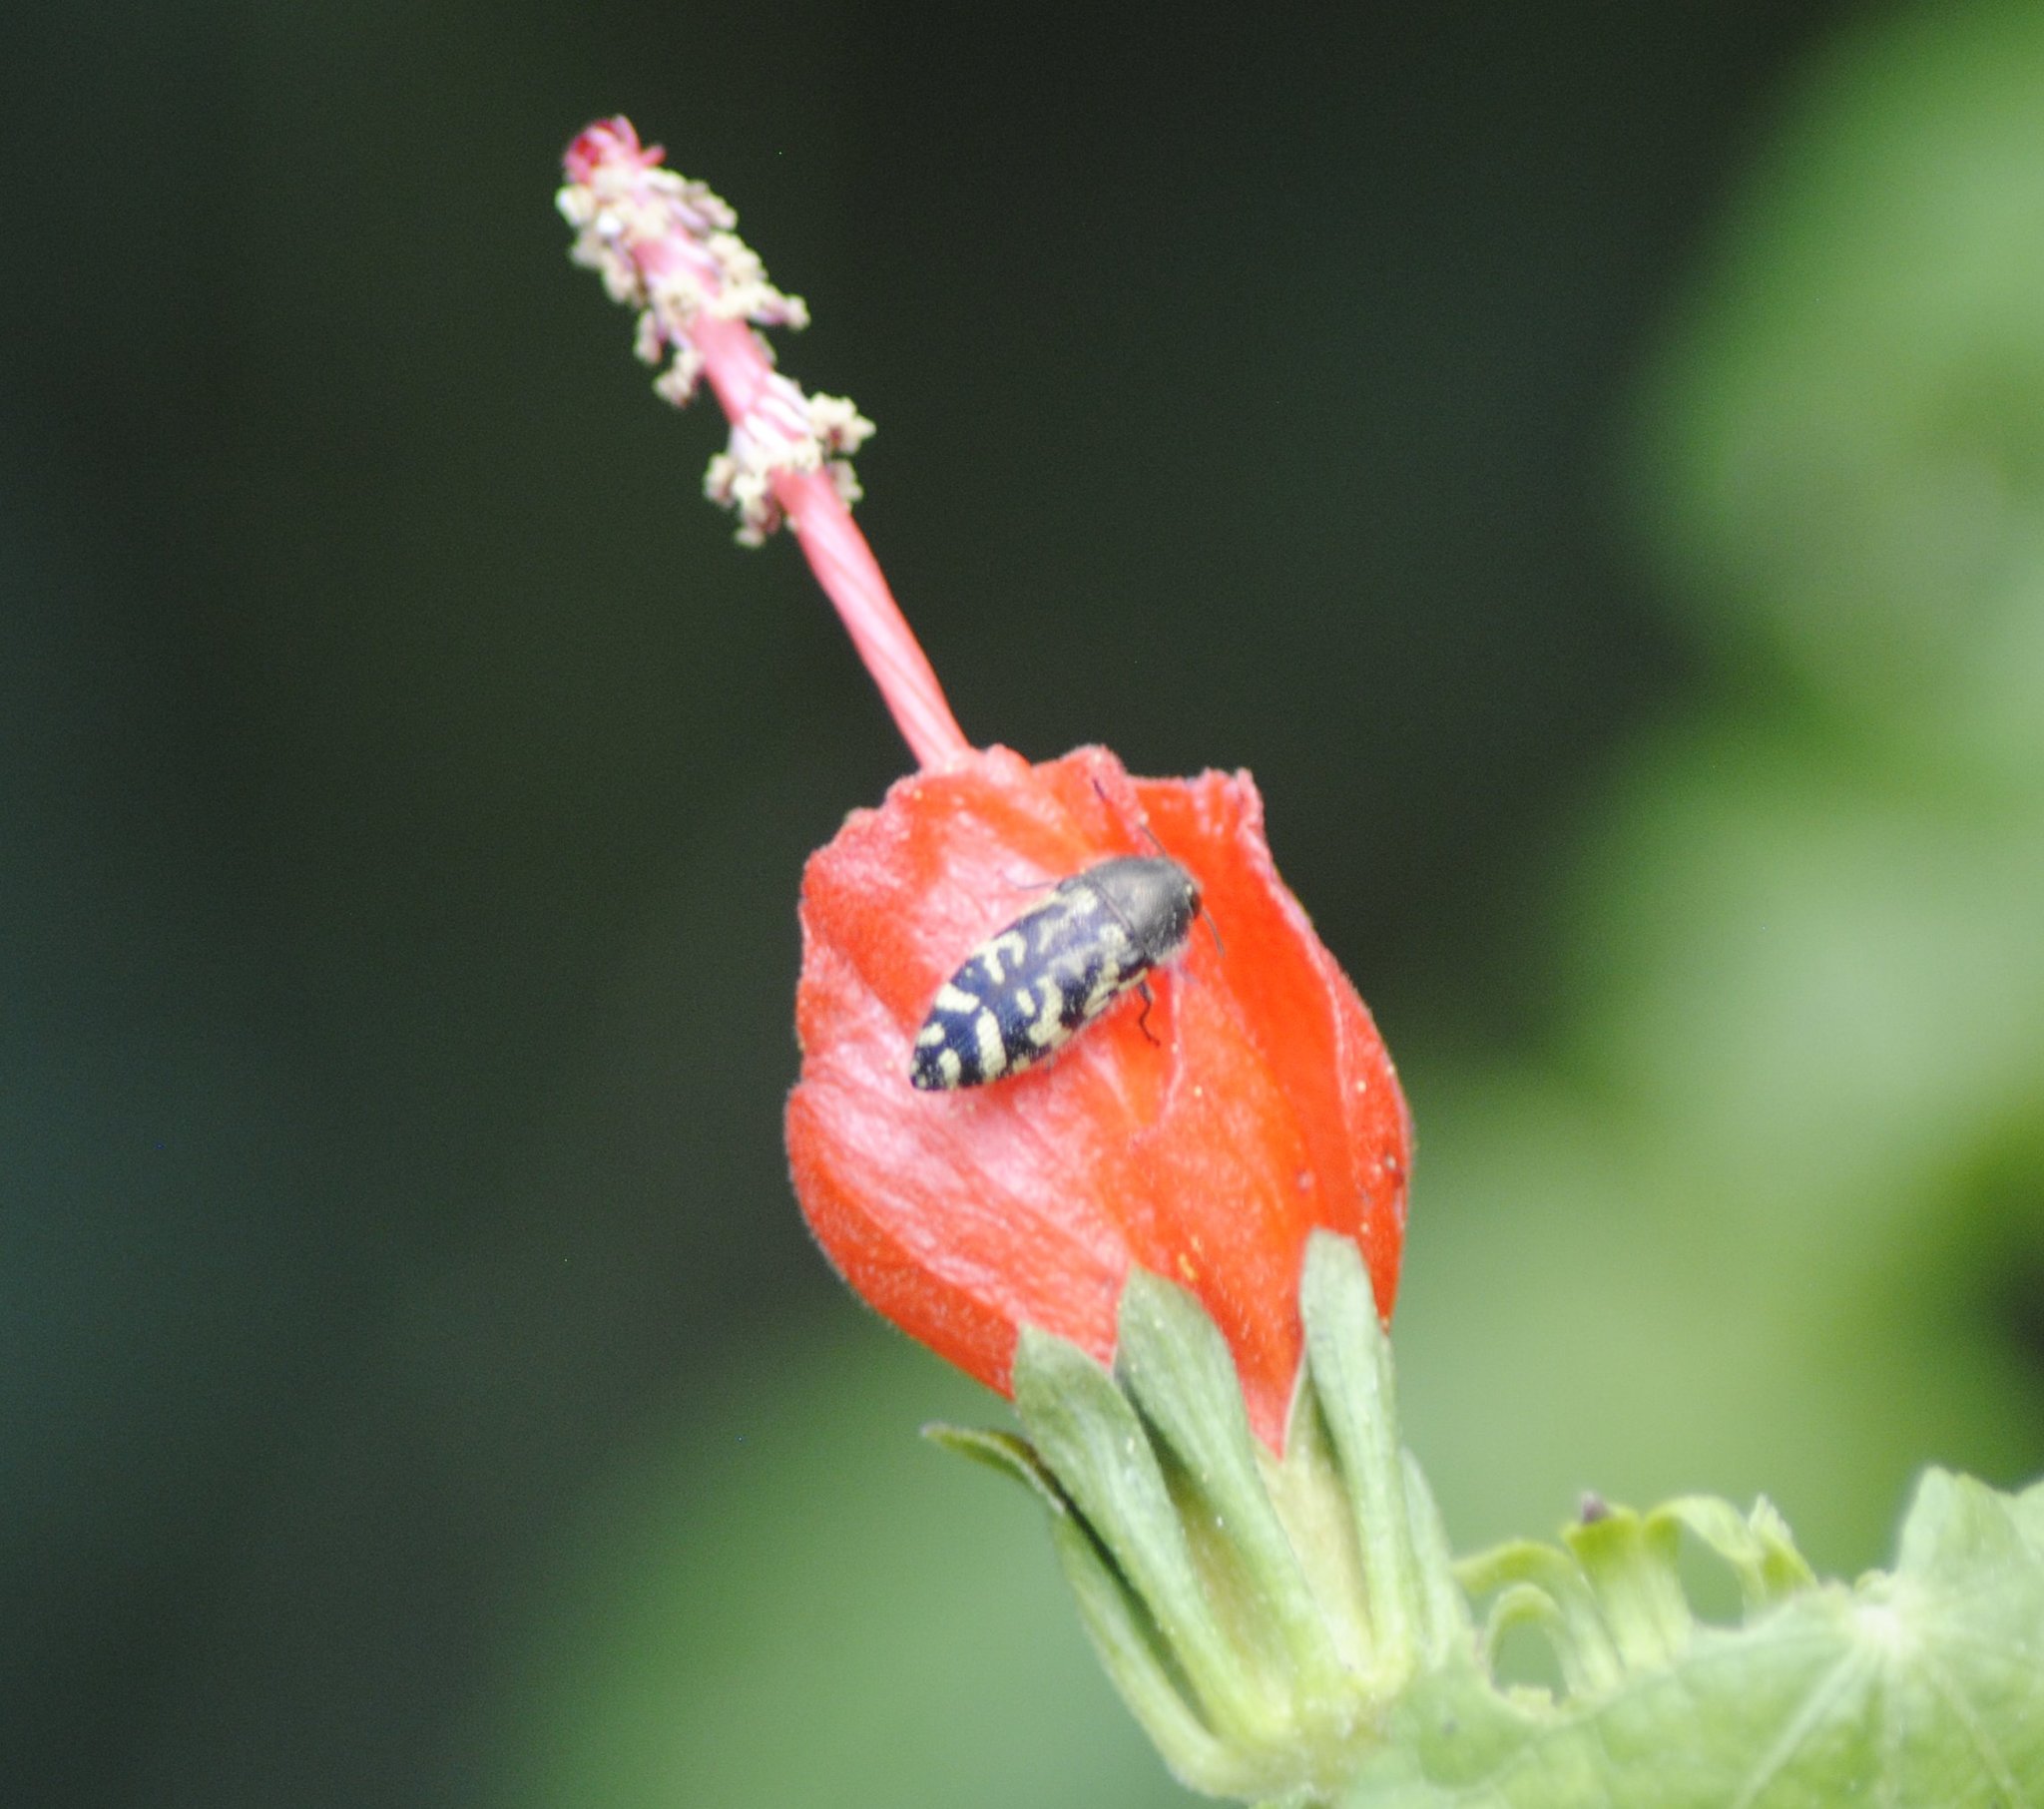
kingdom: Animalia
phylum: Arthropoda
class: Insecta
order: Coleoptera
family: Buprestidae
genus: Acmaeodera
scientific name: Acmaeodera mixta
